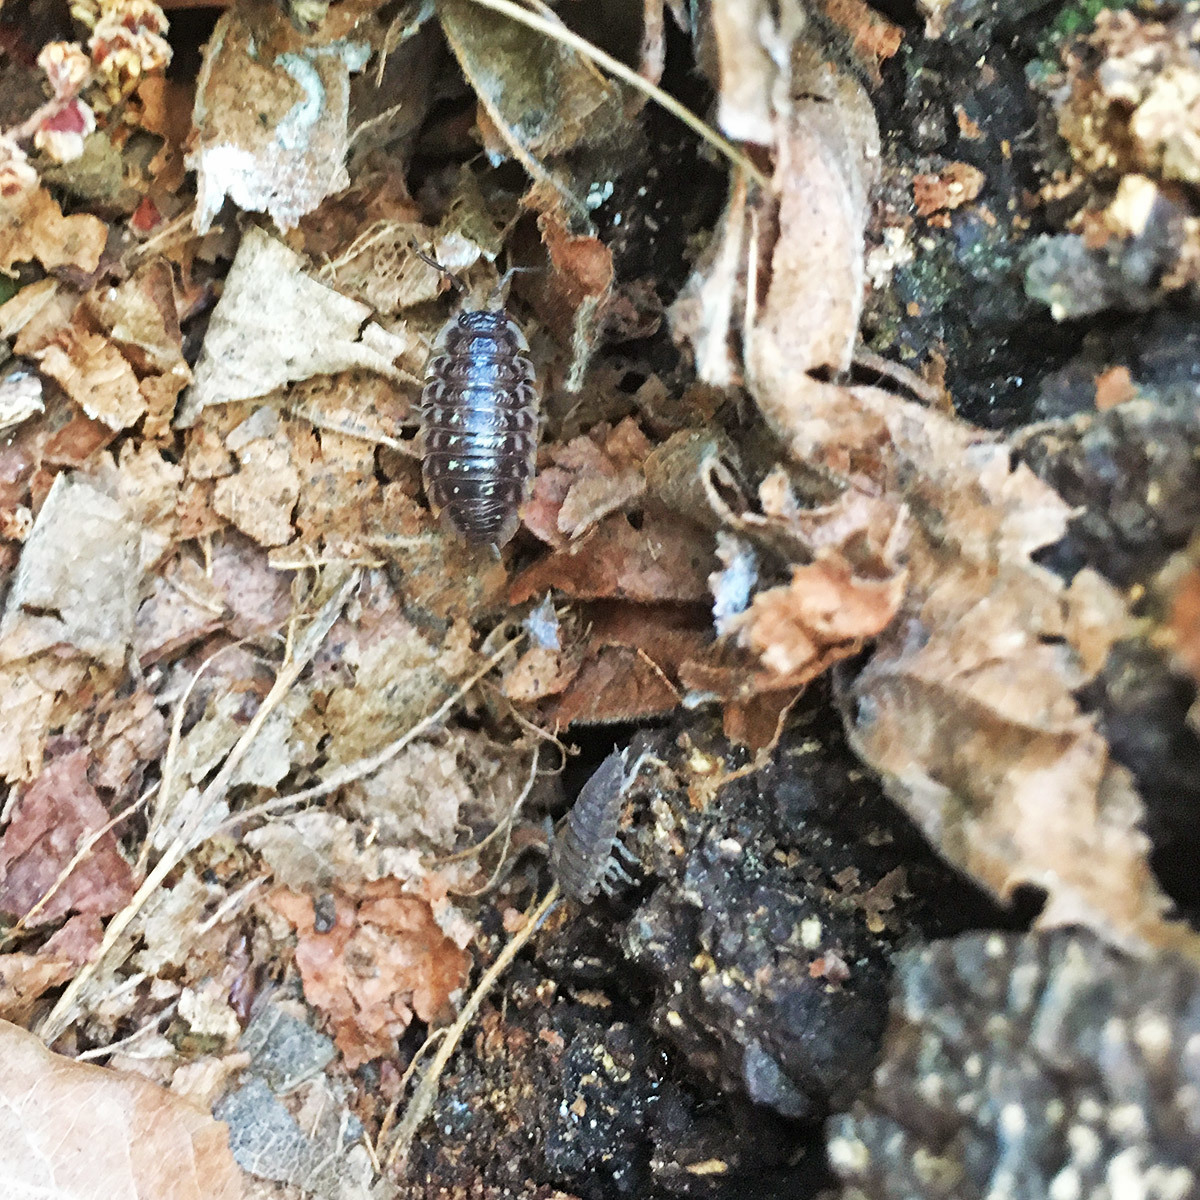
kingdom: Animalia
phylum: Arthropoda
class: Malacostraca
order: Isopoda
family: Oniscidae
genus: Oniscus
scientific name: Oniscus asellus
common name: Common shiny woodlouse
